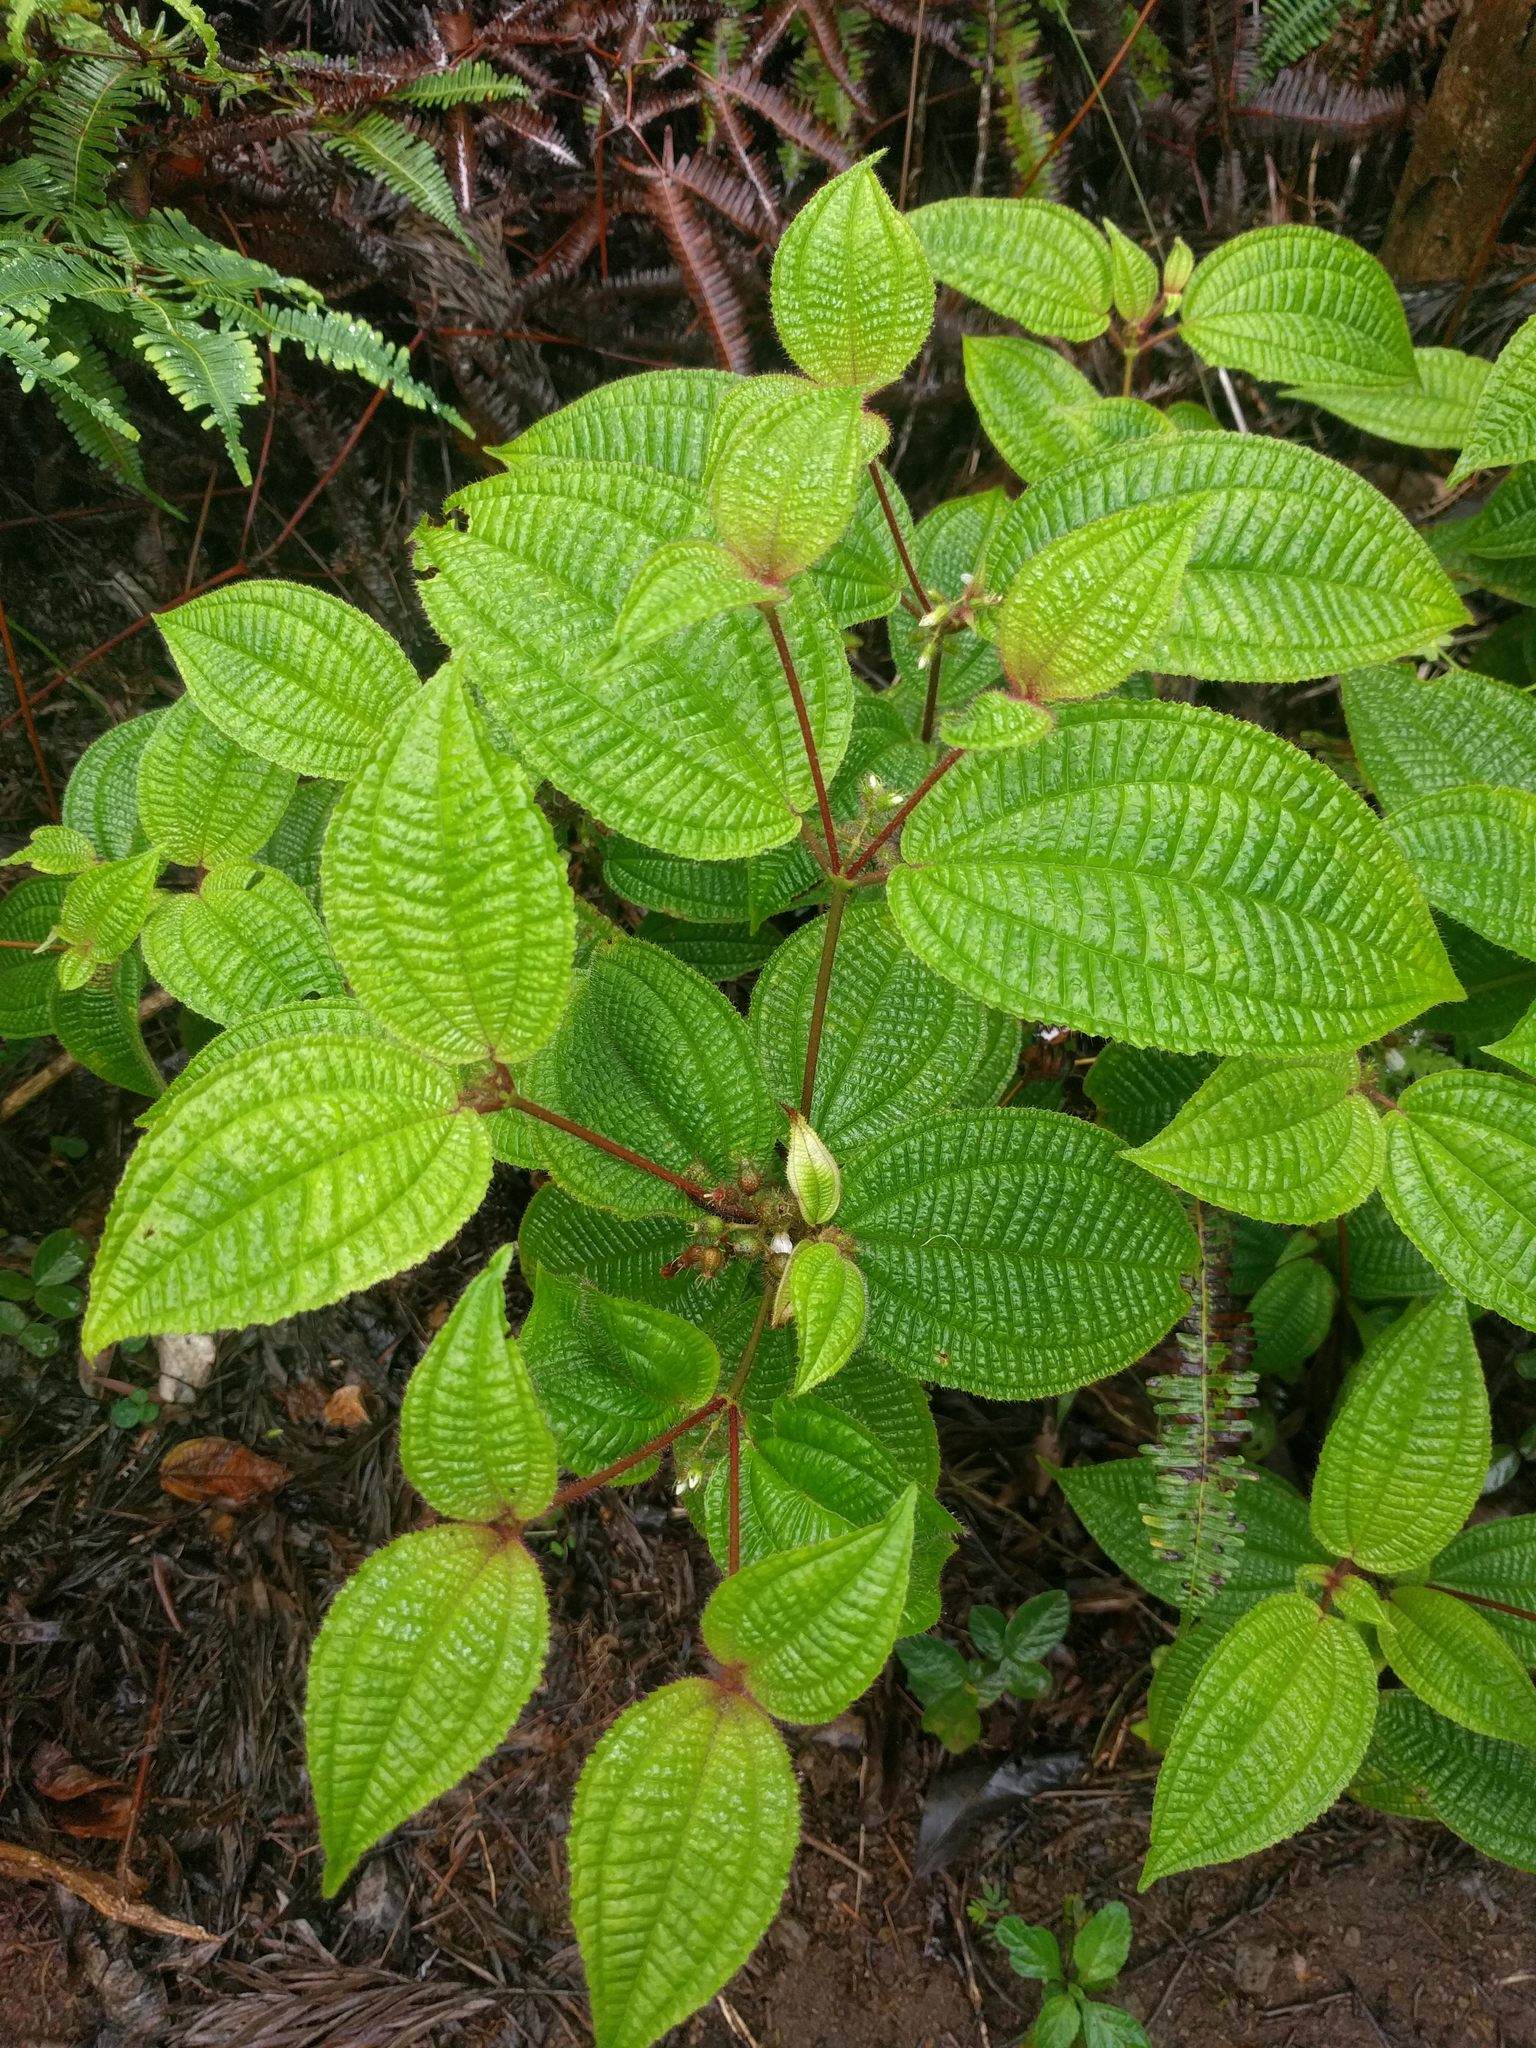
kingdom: Plantae
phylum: Tracheophyta
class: Magnoliopsida
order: Myrtales
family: Melastomataceae
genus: Miconia
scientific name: Miconia crenata
